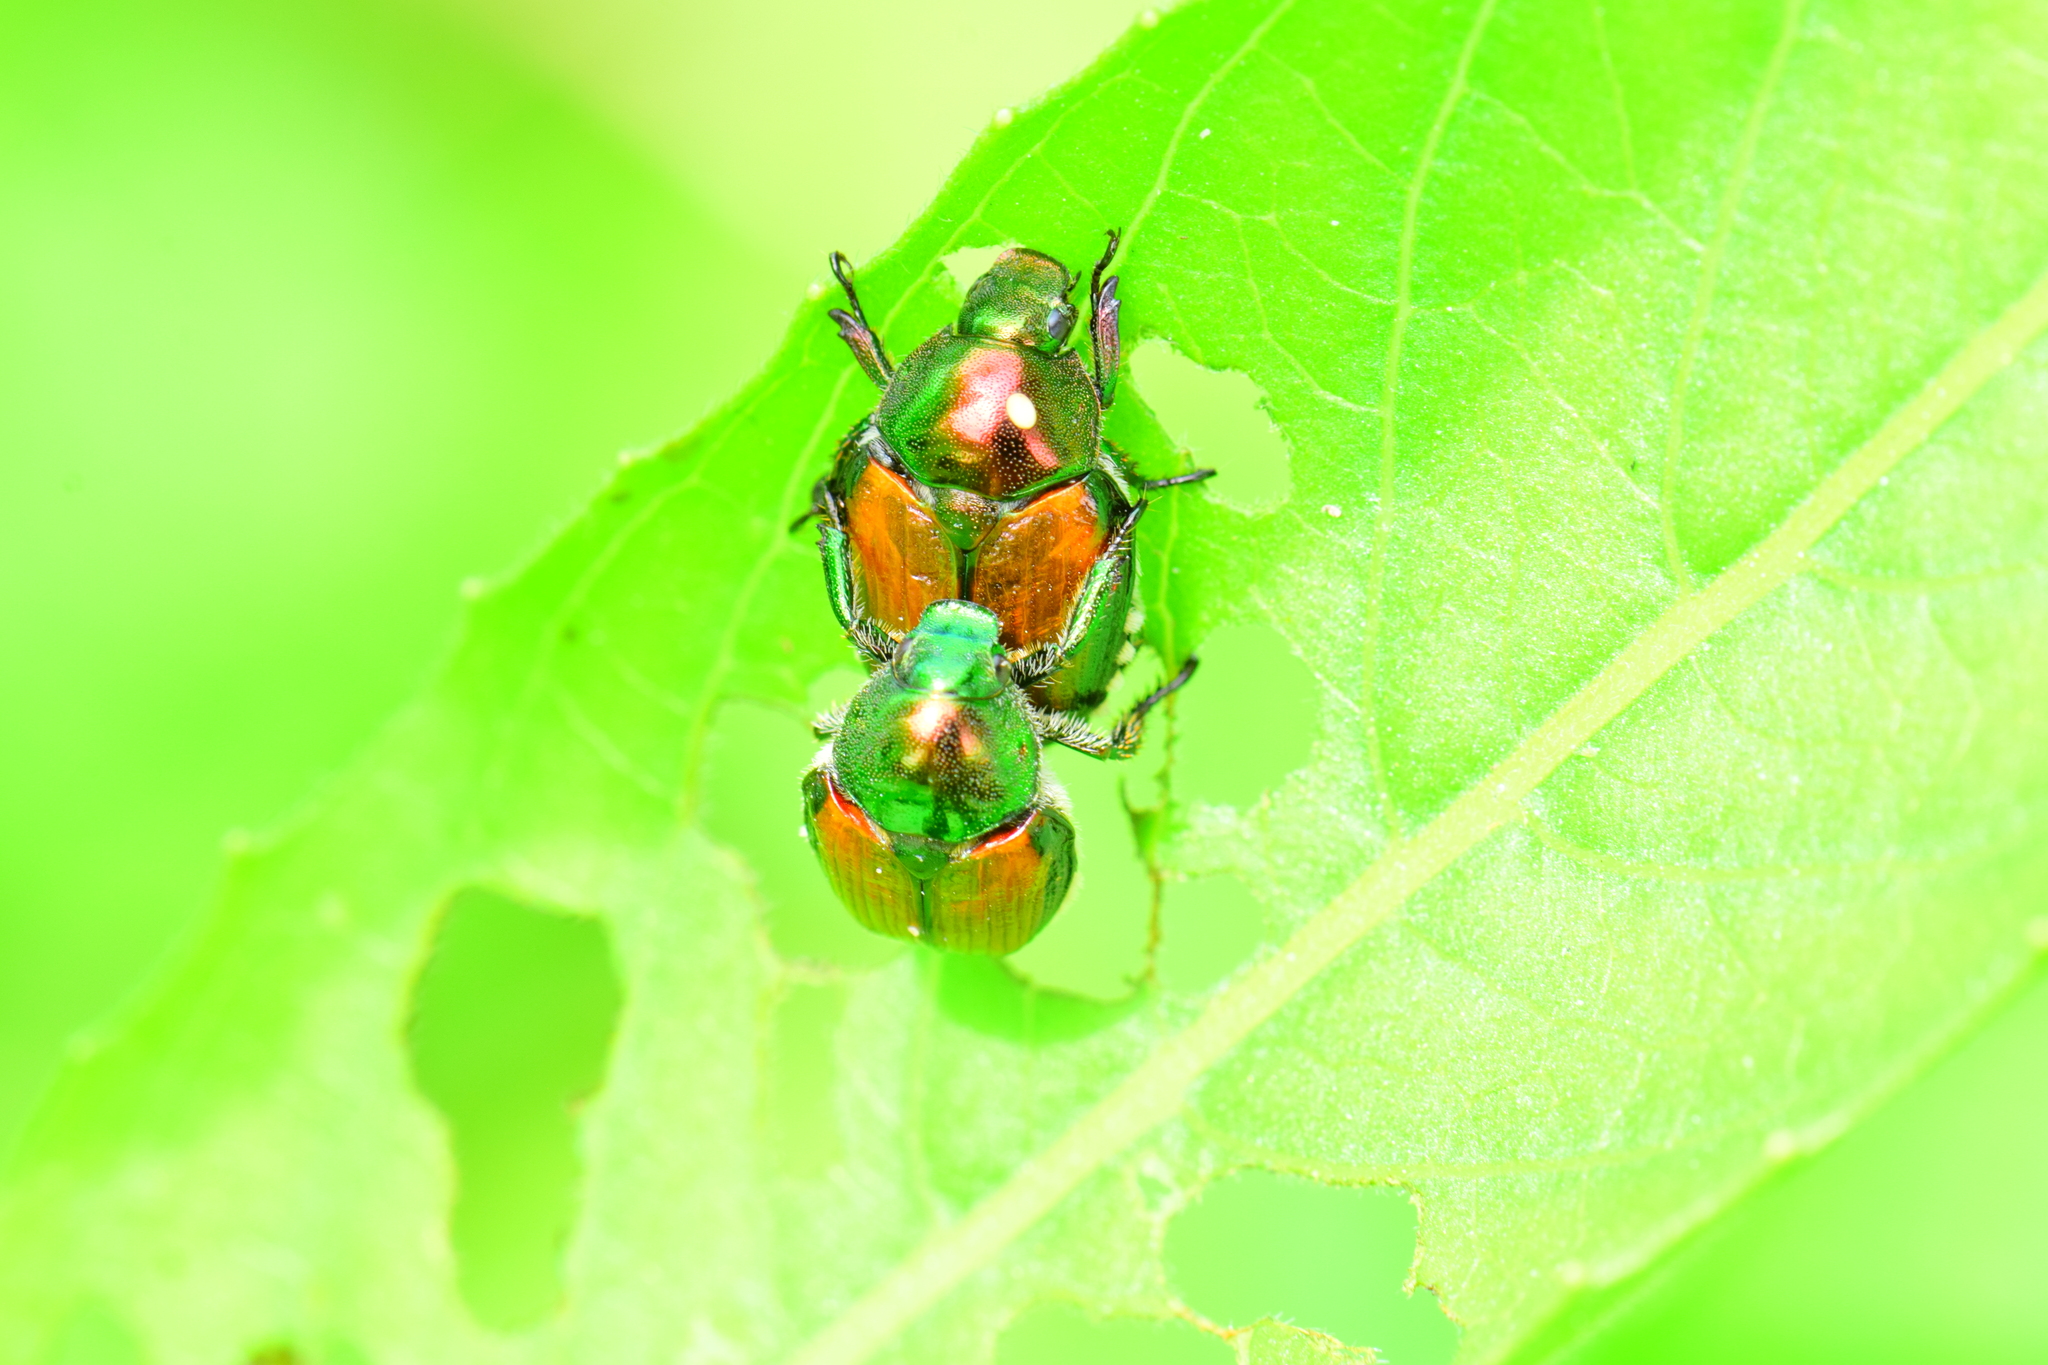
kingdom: Animalia
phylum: Arthropoda
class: Insecta
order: Coleoptera
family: Scarabaeidae
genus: Popillia
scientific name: Popillia japonica
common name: Japanese beetle
